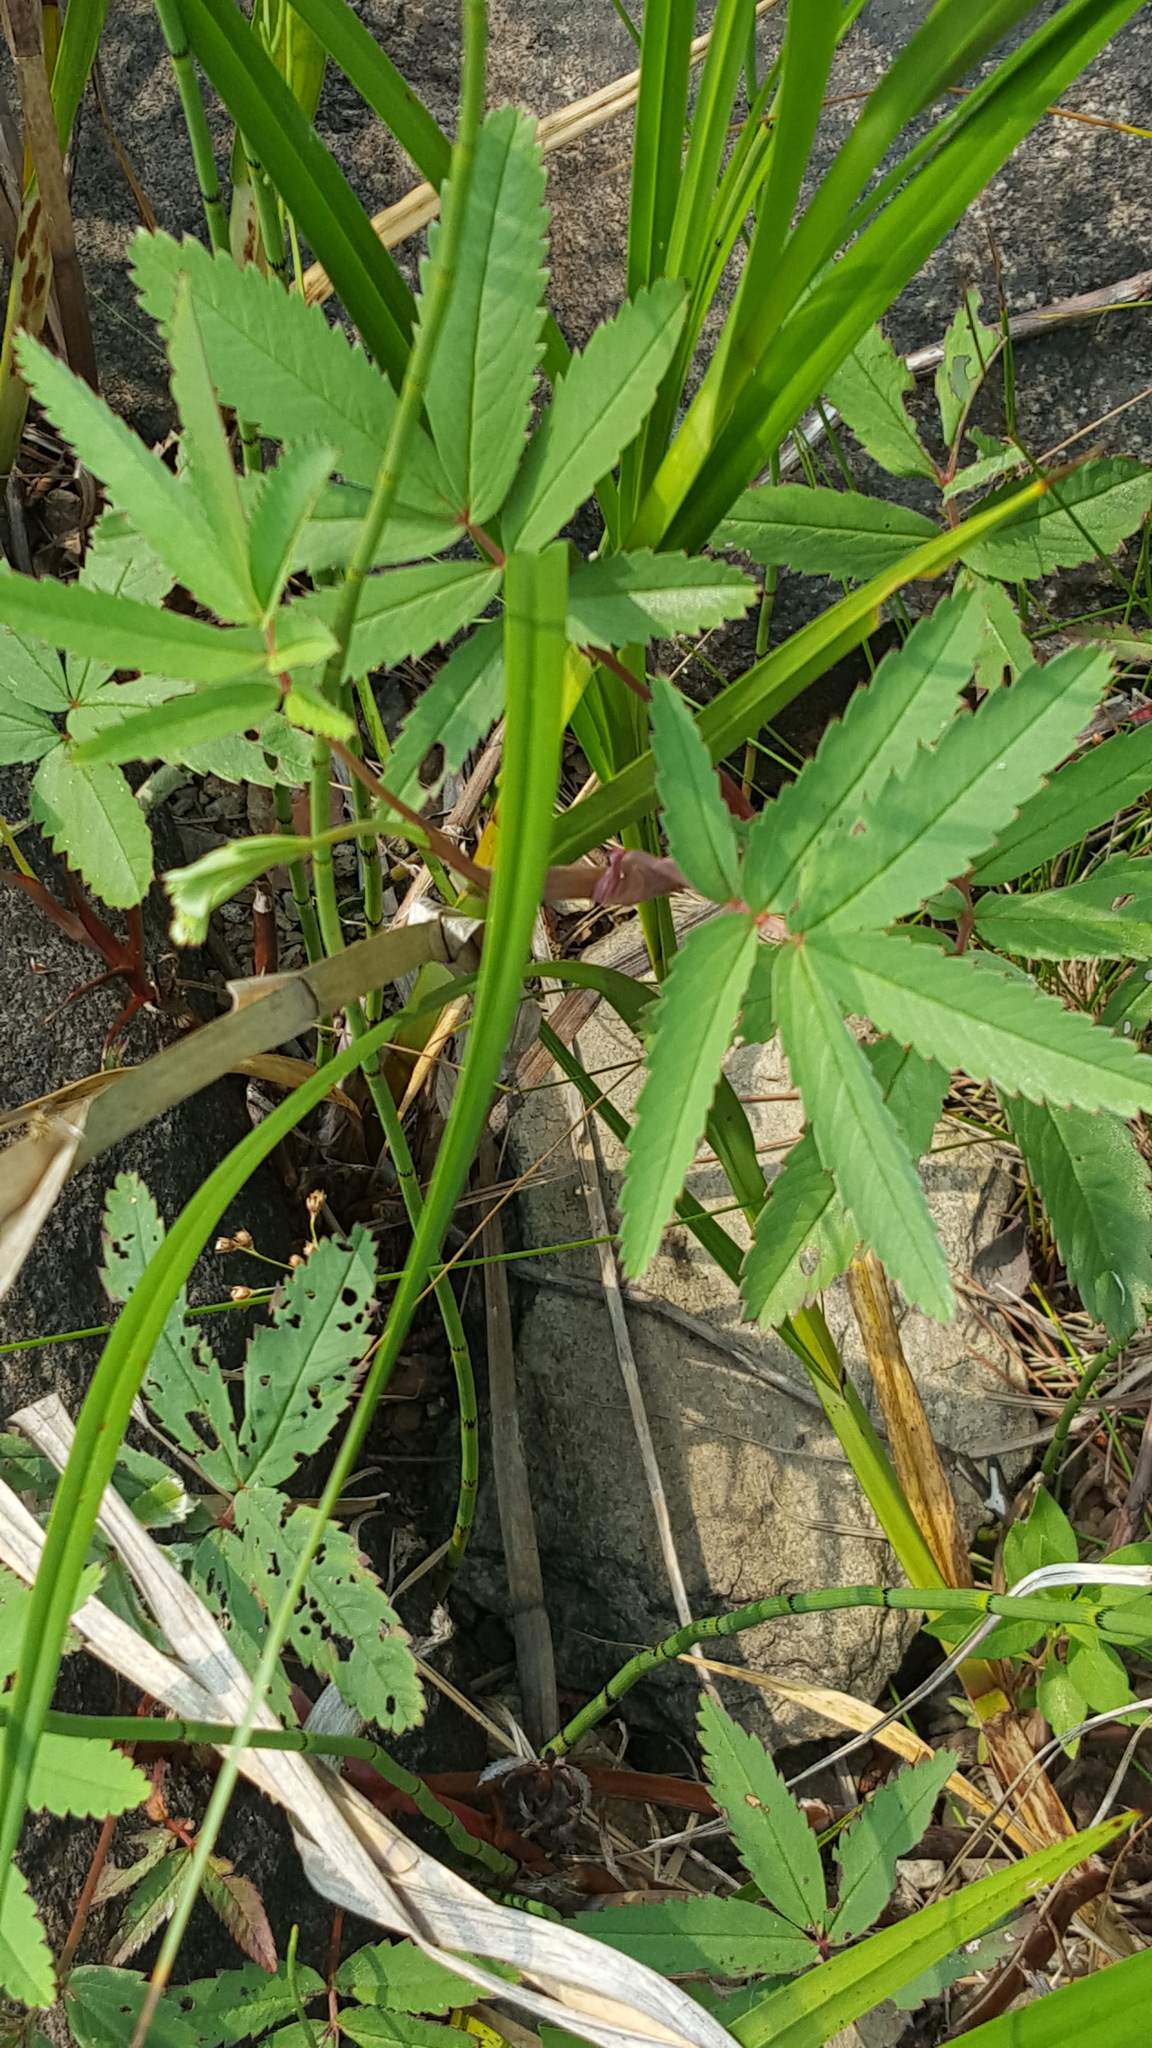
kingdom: Plantae
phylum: Tracheophyta
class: Magnoliopsida
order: Rosales
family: Rosaceae
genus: Comarum
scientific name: Comarum palustre
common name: Marsh cinquefoil
